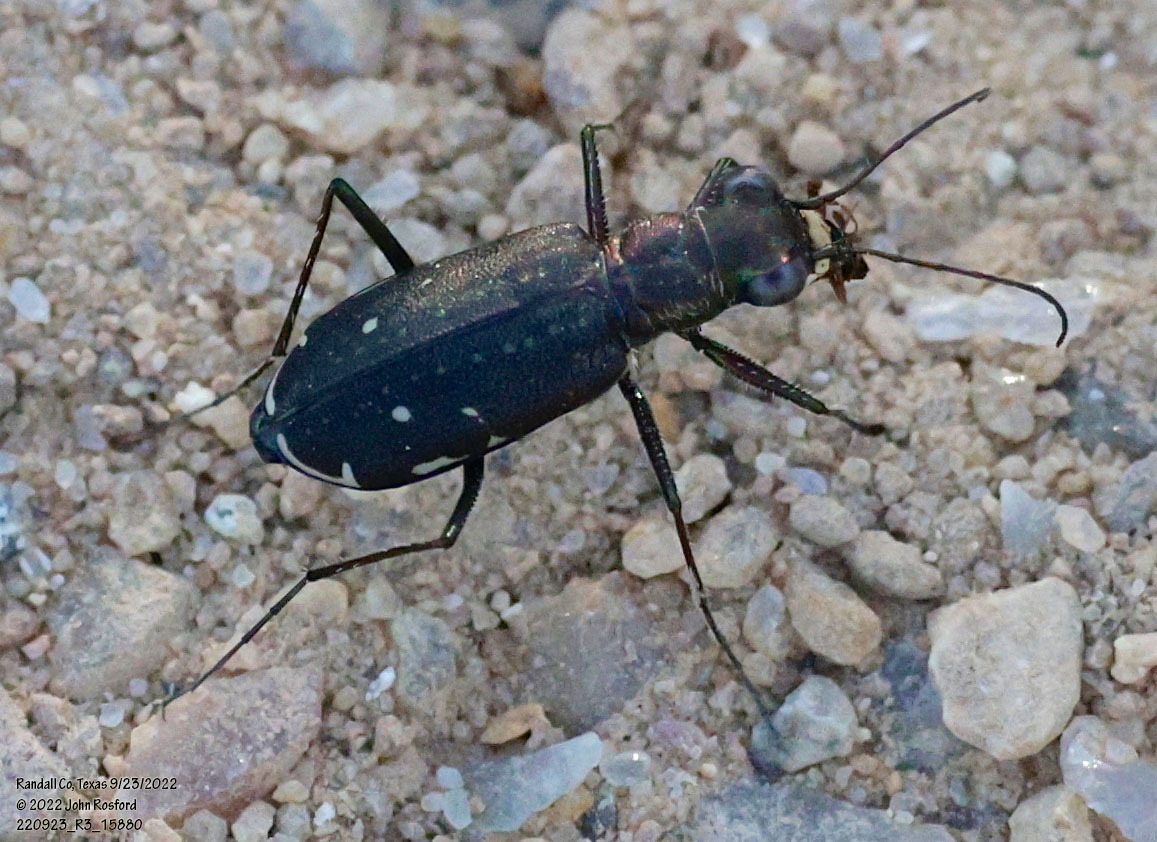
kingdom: Animalia
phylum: Arthropoda
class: Insecta
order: Coleoptera
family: Carabidae
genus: Cicindela
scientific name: Cicindela punctulata
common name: Punctured tiger beetle
